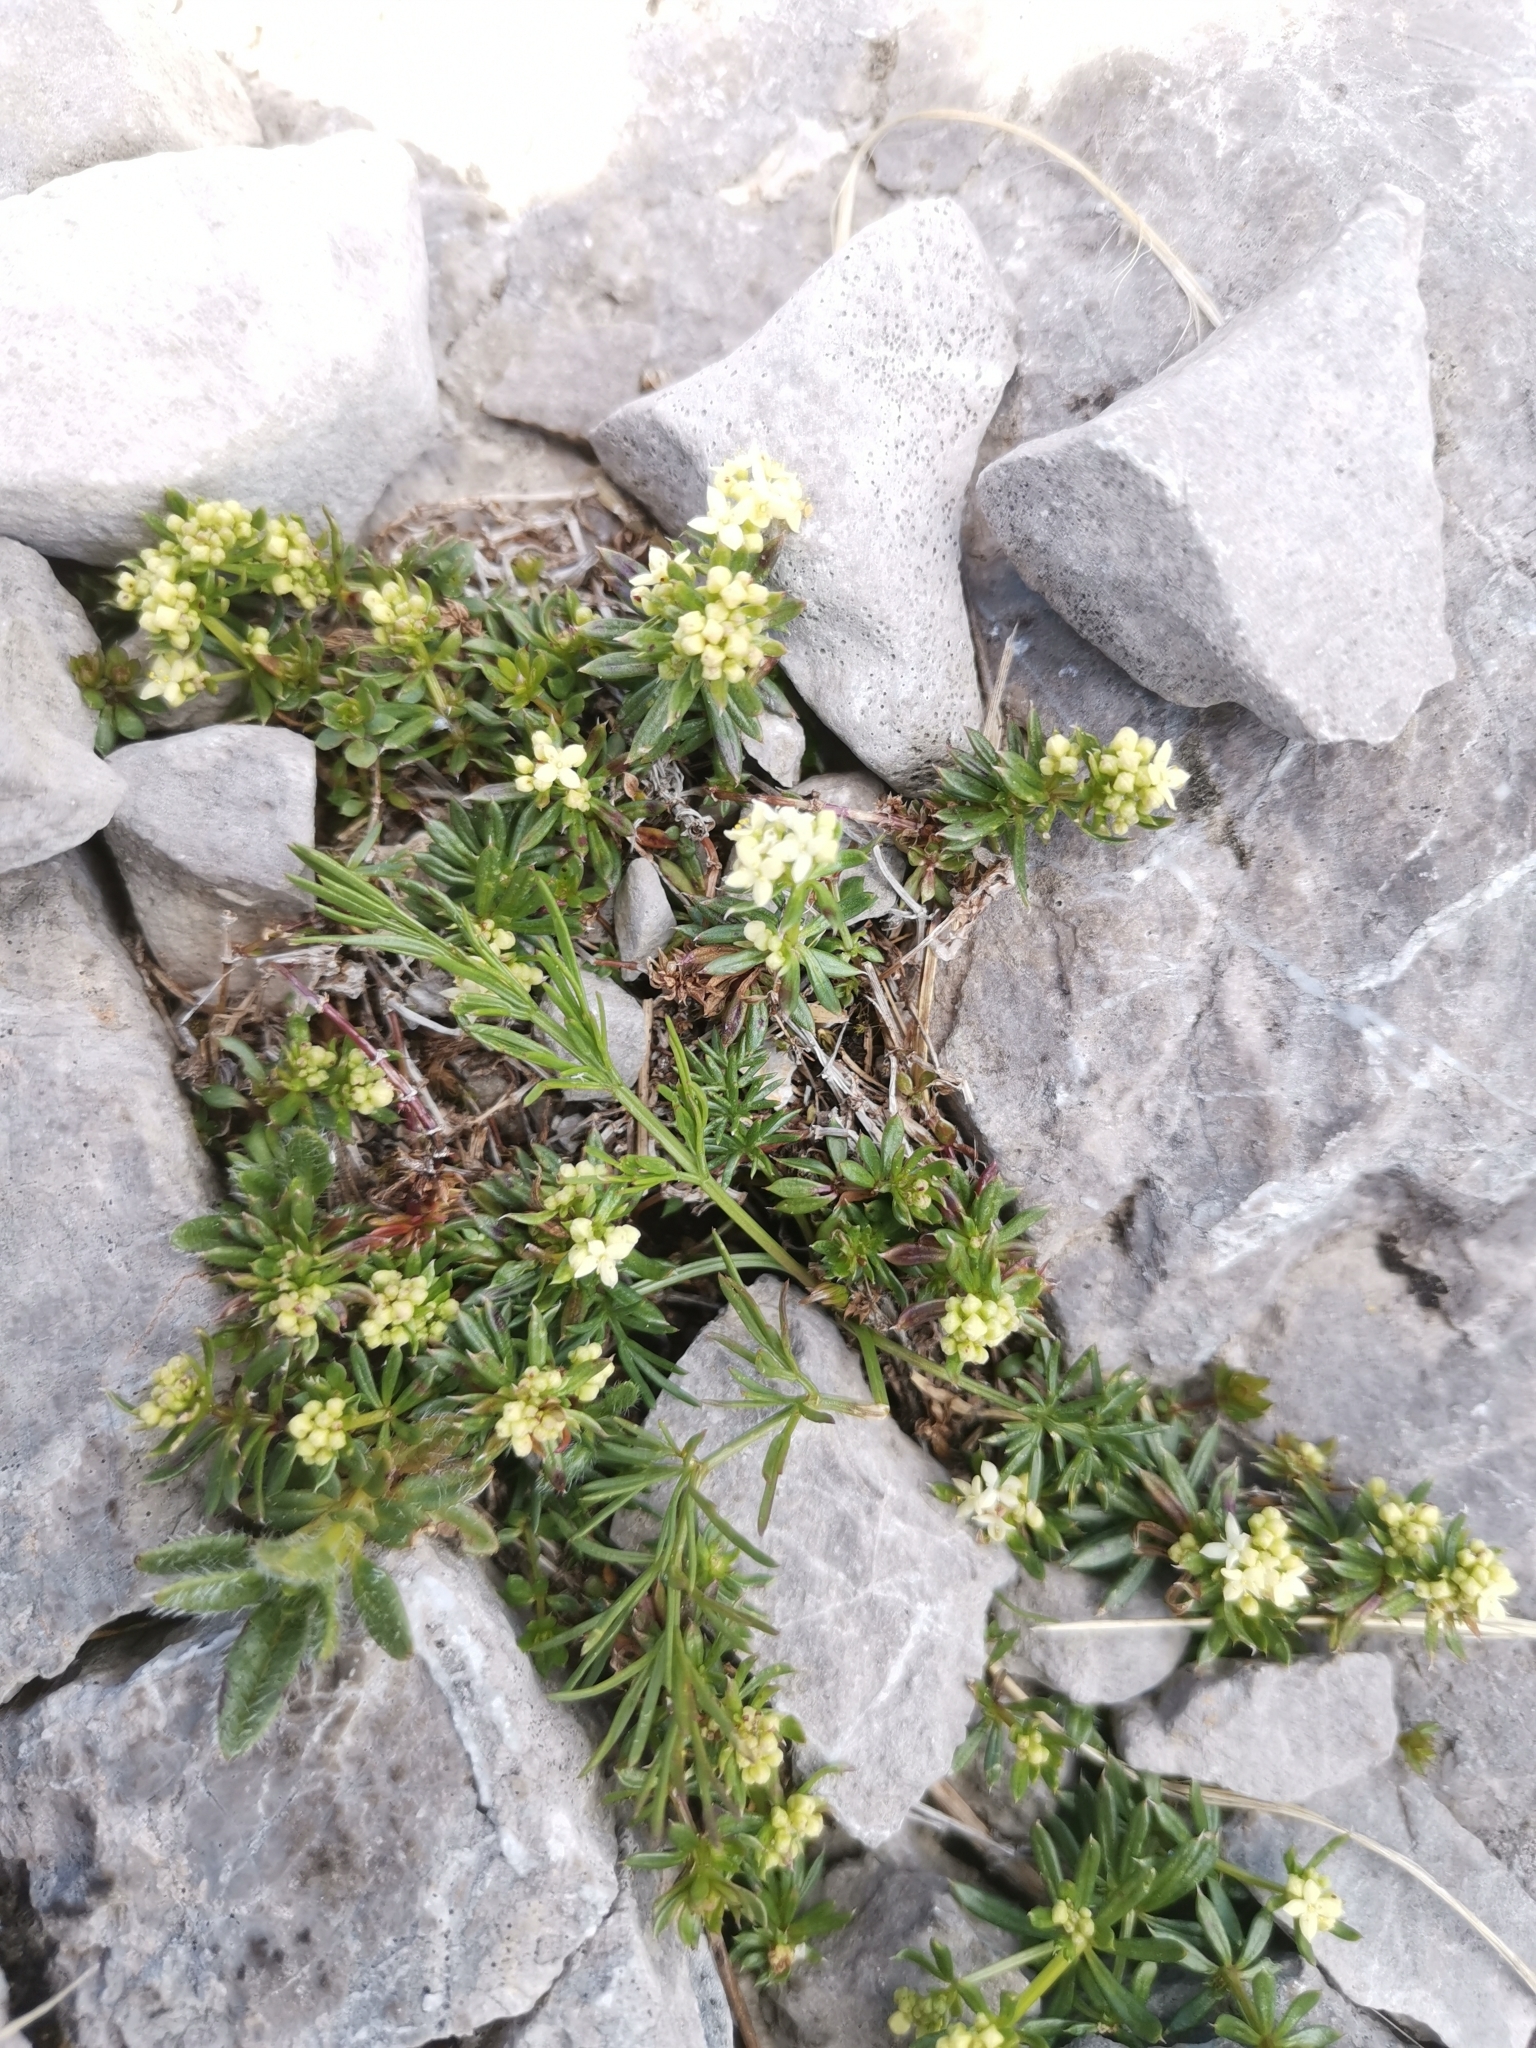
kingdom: Plantae
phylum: Tracheophyta
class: Magnoliopsida
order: Gentianales
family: Rubiaceae
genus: Galium
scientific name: Galium noricum
